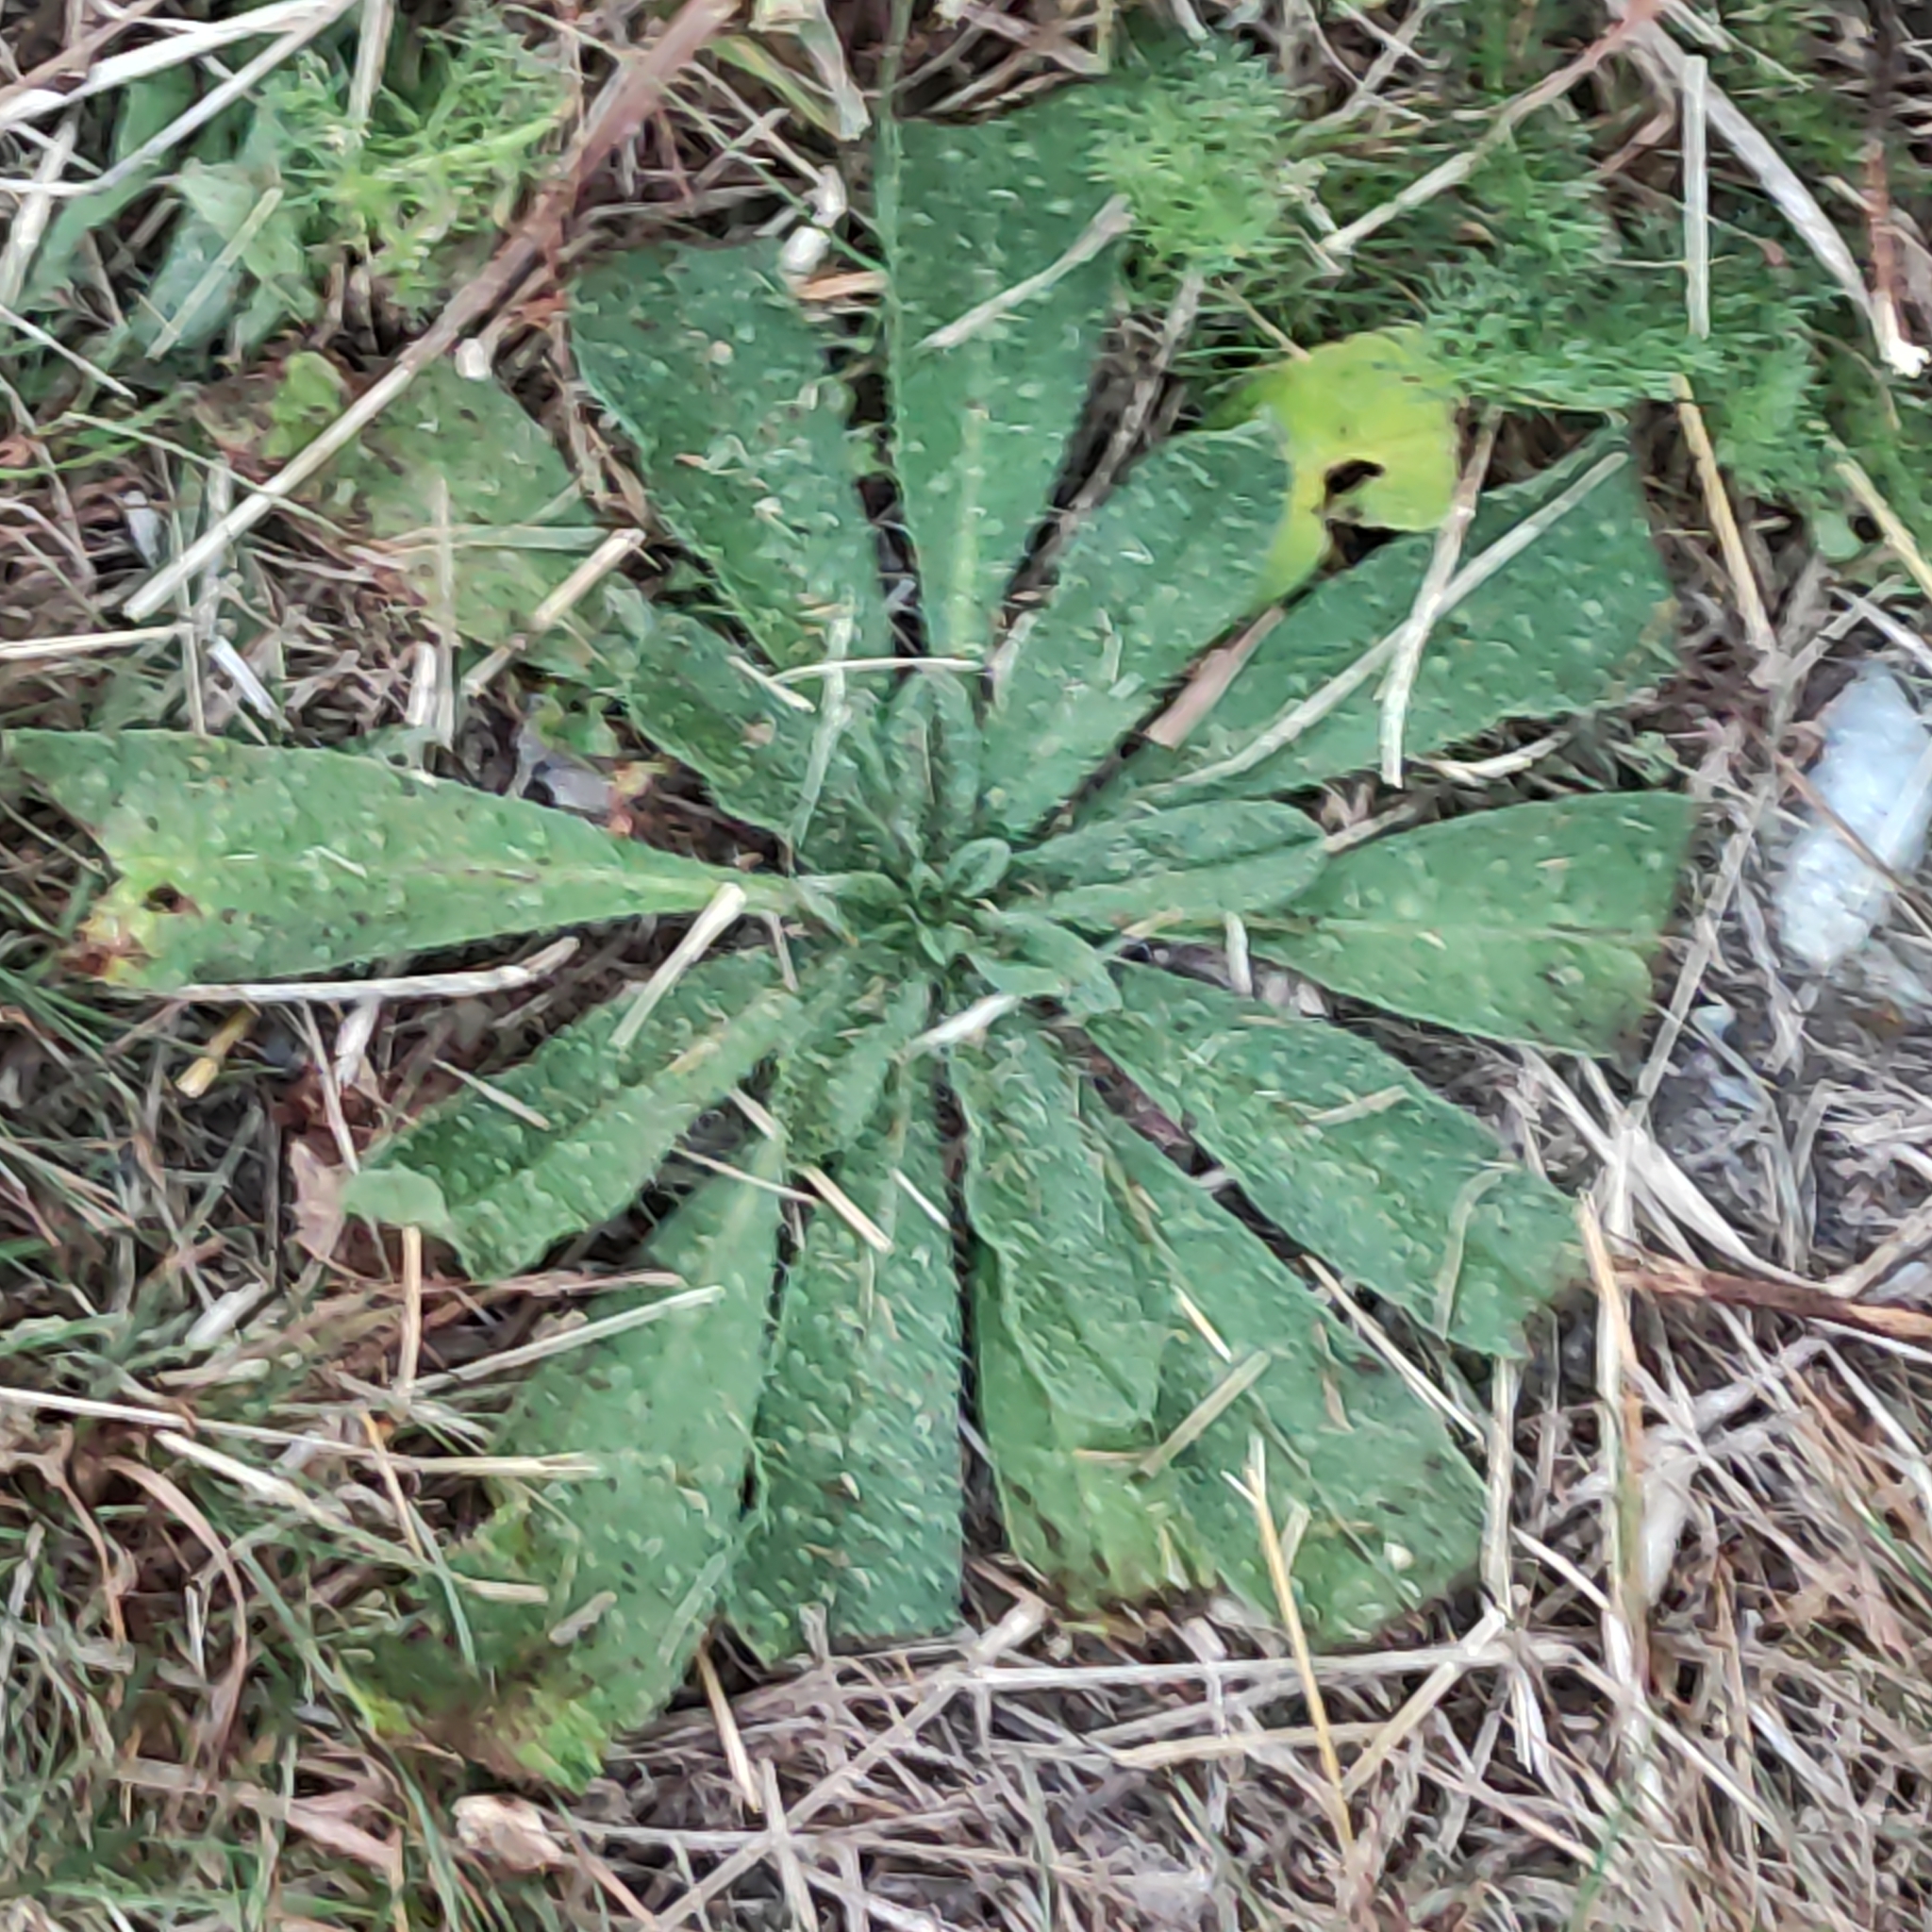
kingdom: Plantae
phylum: Tracheophyta
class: Magnoliopsida
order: Boraginales
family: Boraginaceae
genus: Echium
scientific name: Echium vulgare
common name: Common viper's bugloss
